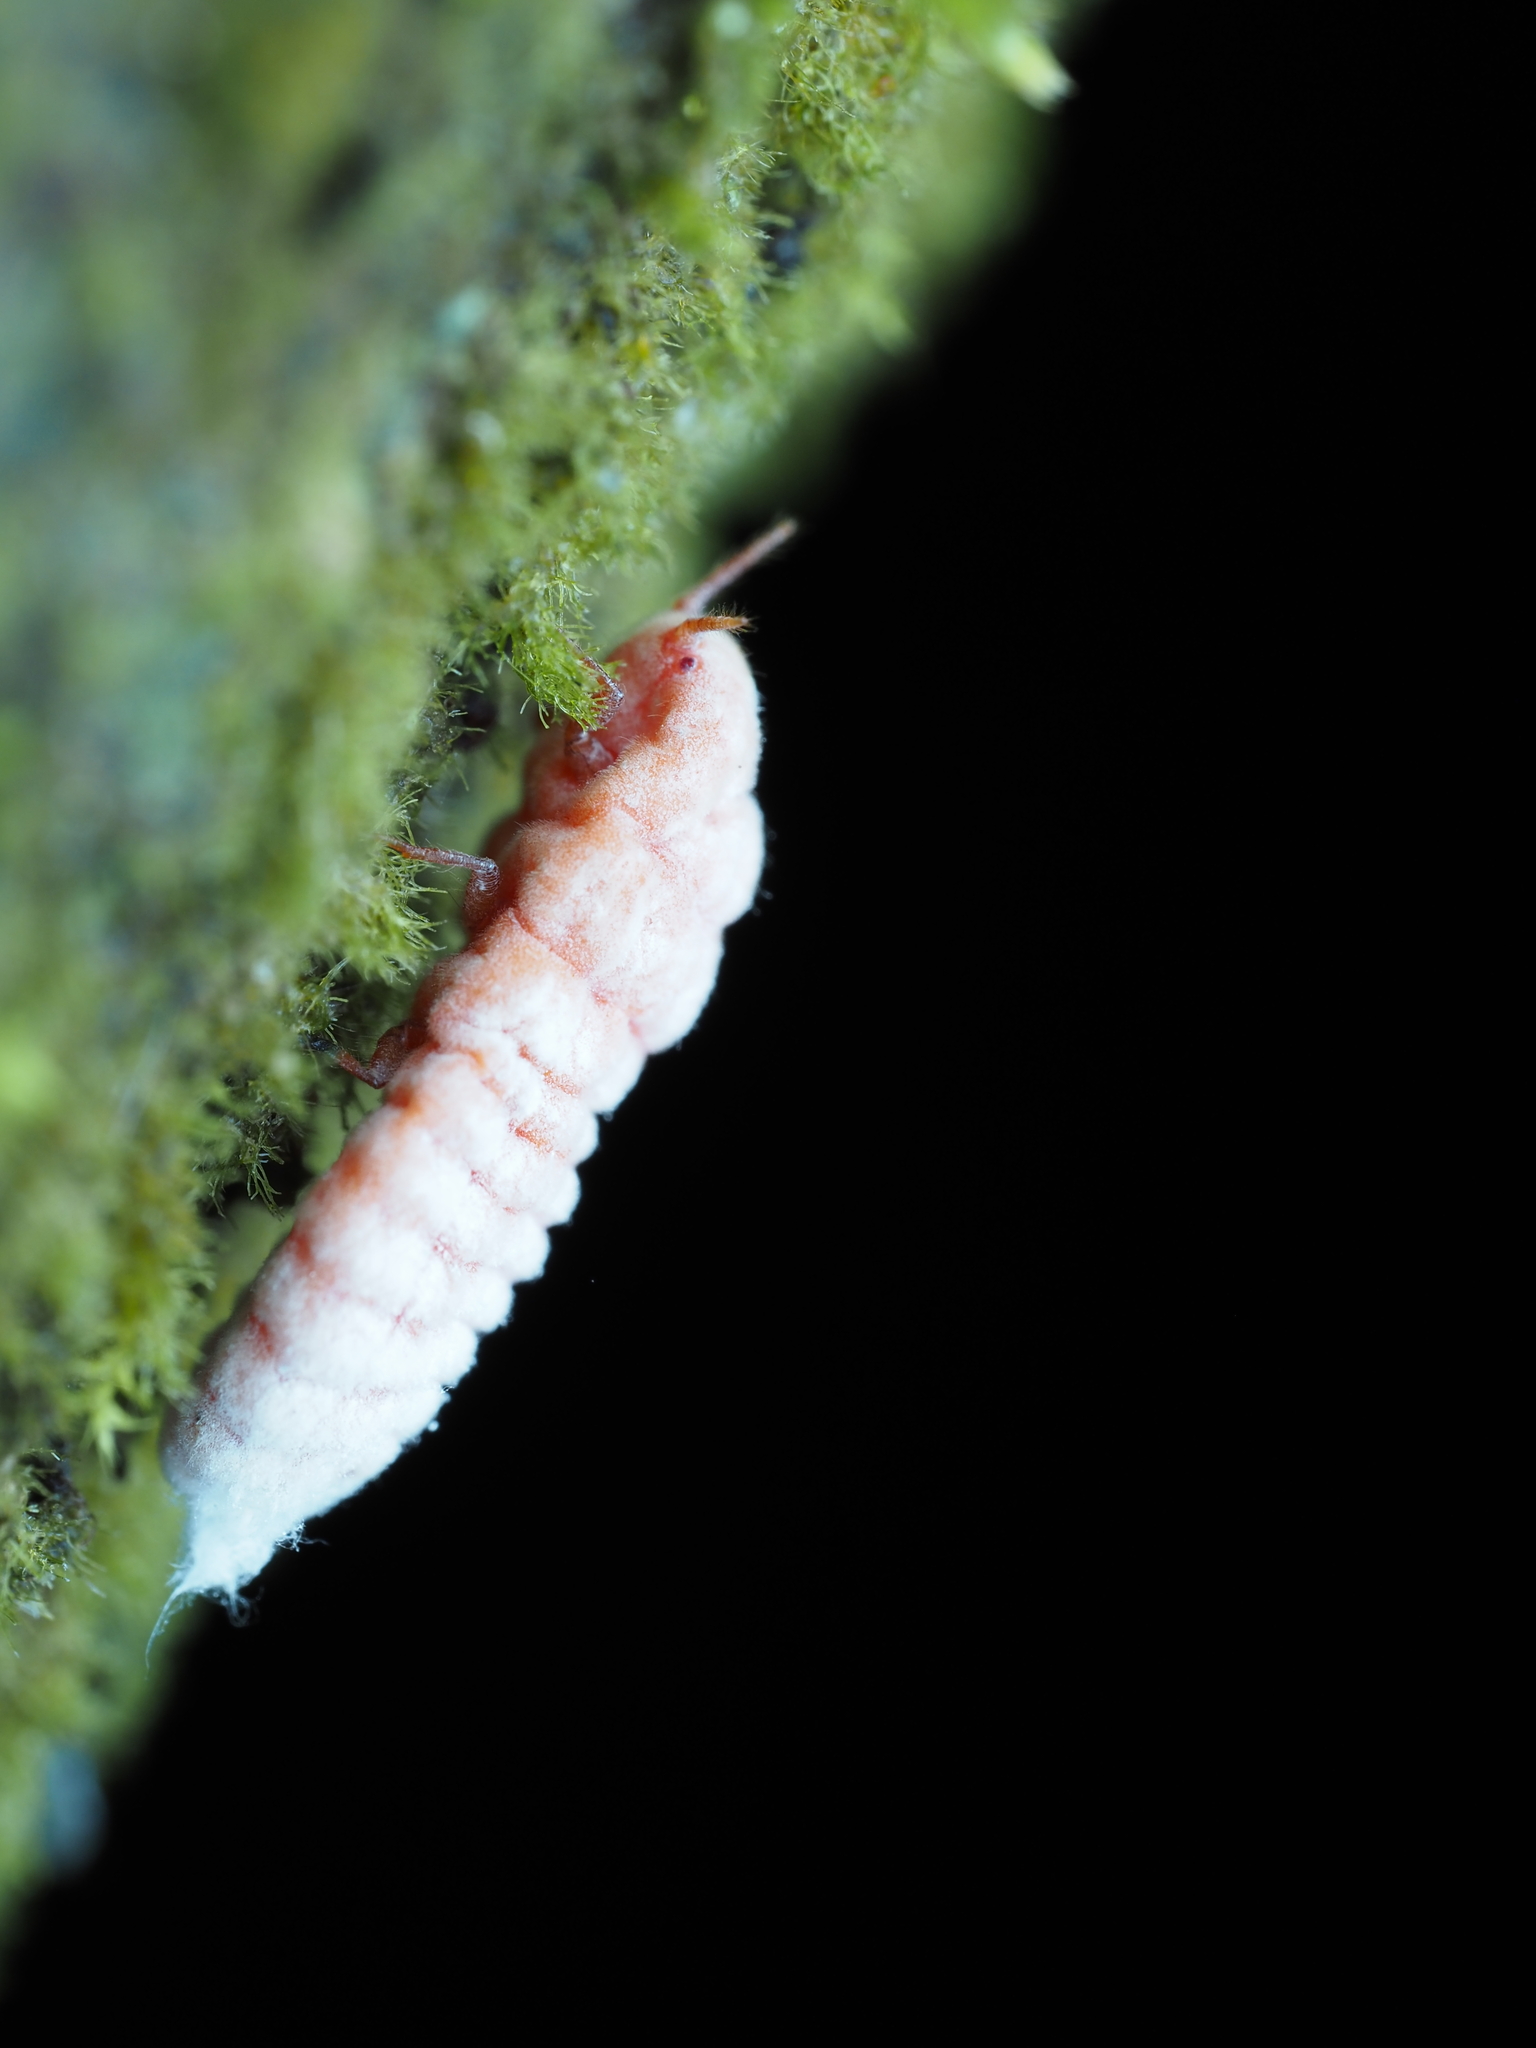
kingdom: Animalia
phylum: Arthropoda
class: Insecta
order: Hemiptera
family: Margarodidae
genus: Coelostomidia
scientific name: Coelostomidia zealandica
